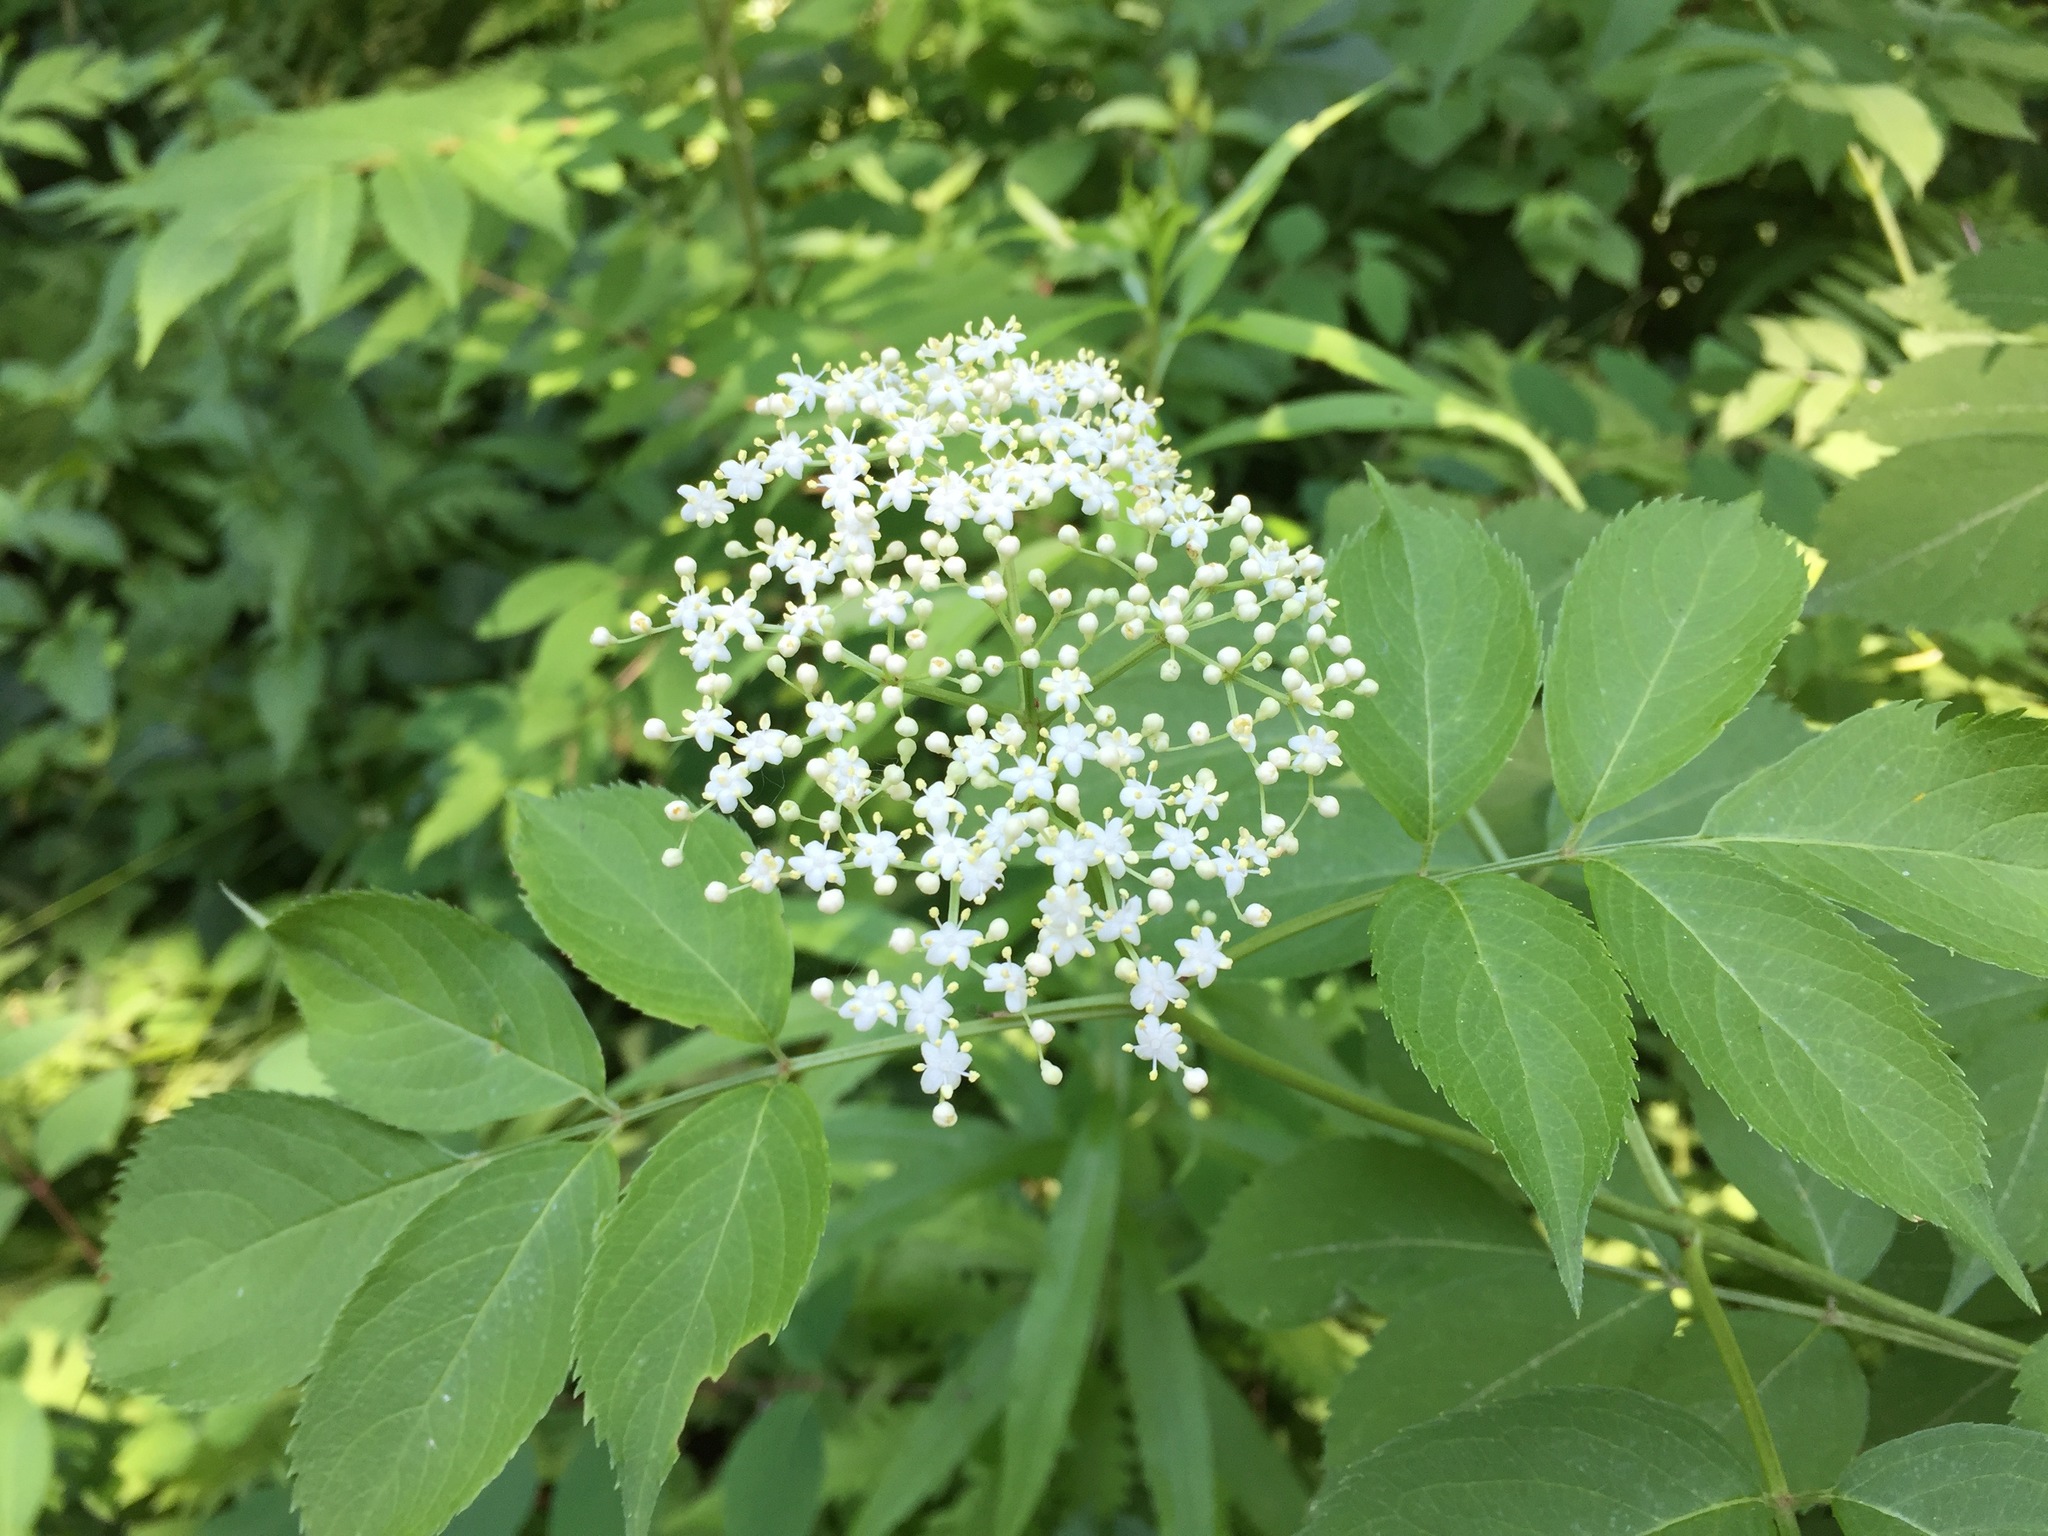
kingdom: Plantae
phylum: Tracheophyta
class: Magnoliopsida
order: Dipsacales
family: Viburnaceae
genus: Sambucus
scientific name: Sambucus canadensis
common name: American elder
